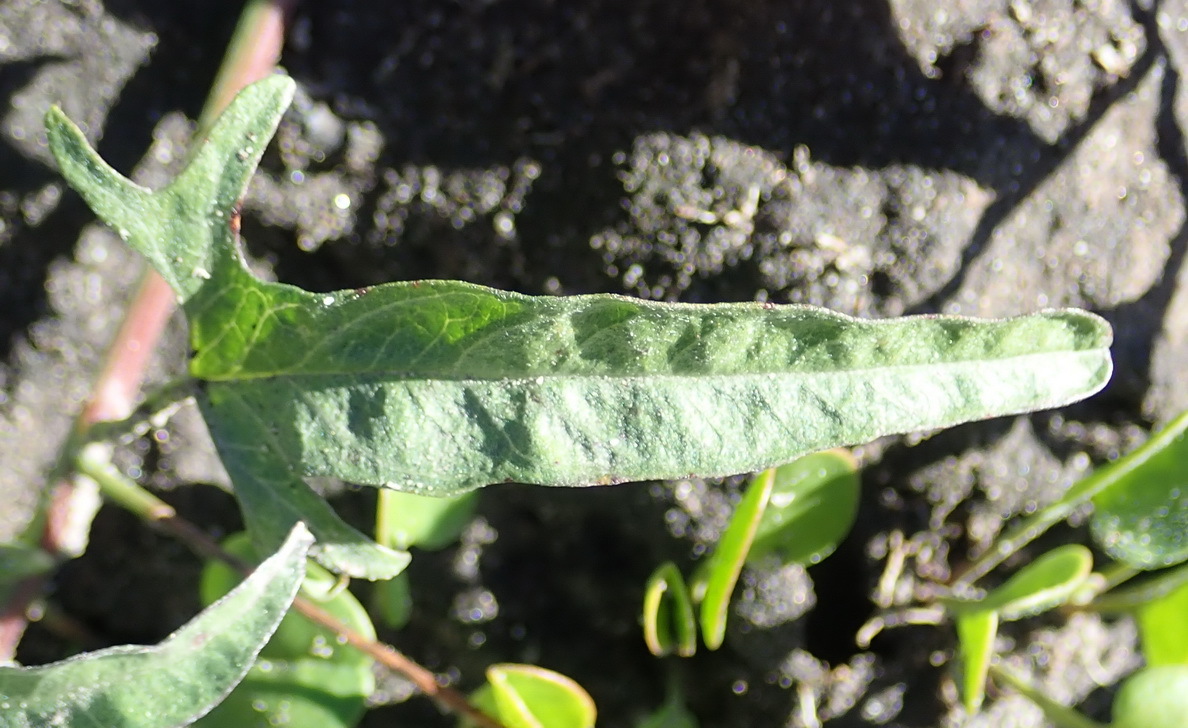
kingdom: Plantae
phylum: Tracheophyta
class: Magnoliopsida
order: Solanales
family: Convolvulaceae
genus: Convolvulus
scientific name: Convolvulus sagittatus
